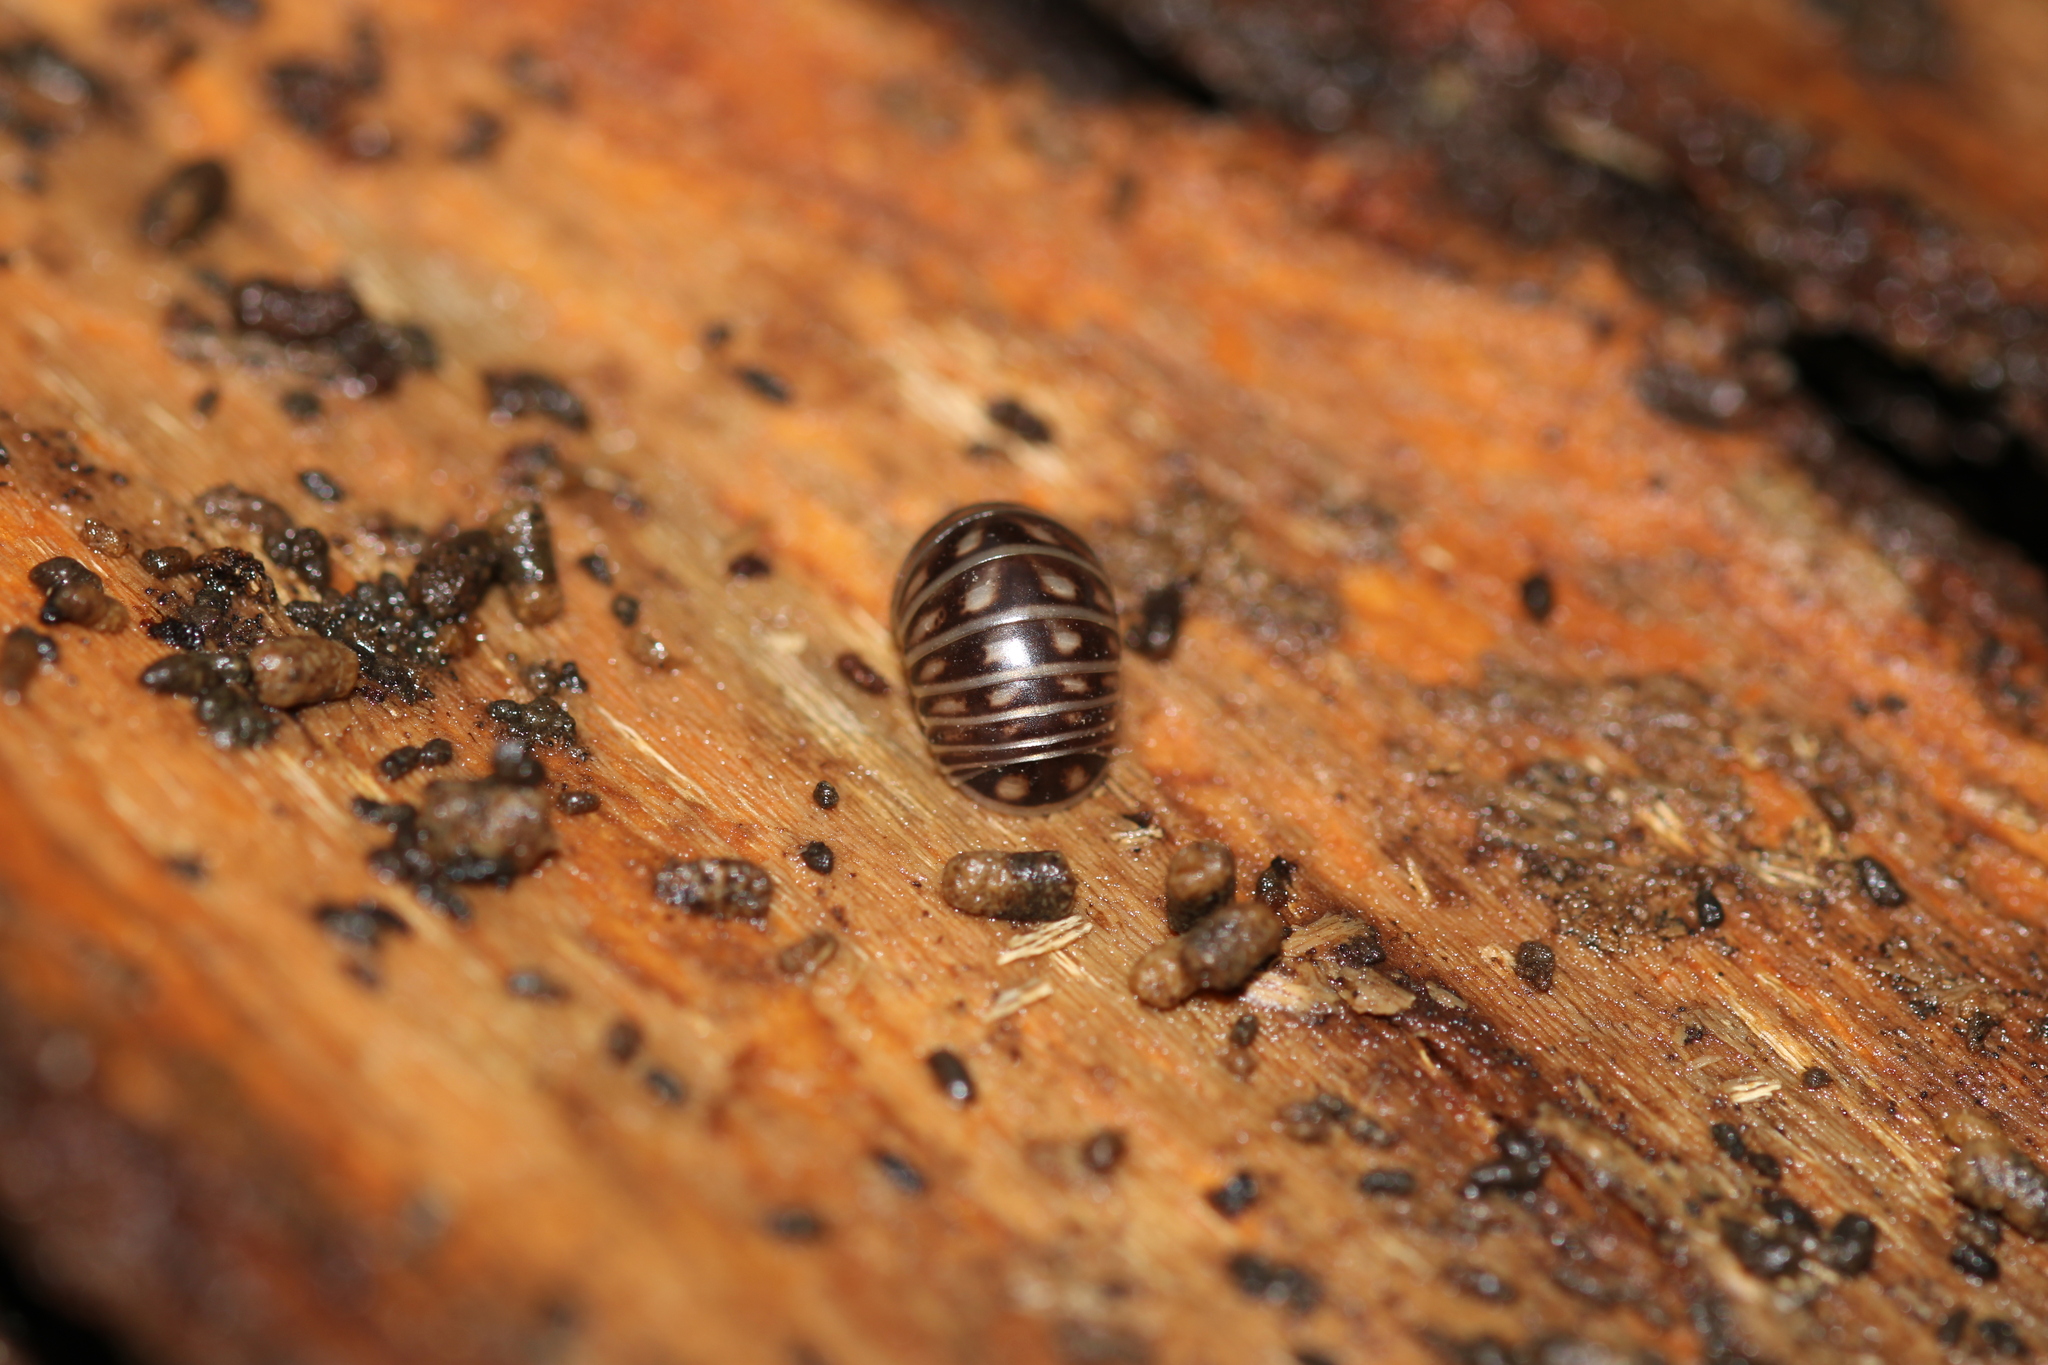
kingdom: Animalia
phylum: Arthropoda
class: Diplopoda
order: Glomerida
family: Glomeridae
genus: Glomeris
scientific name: Glomeris marginata
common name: Bordered pill millipede
